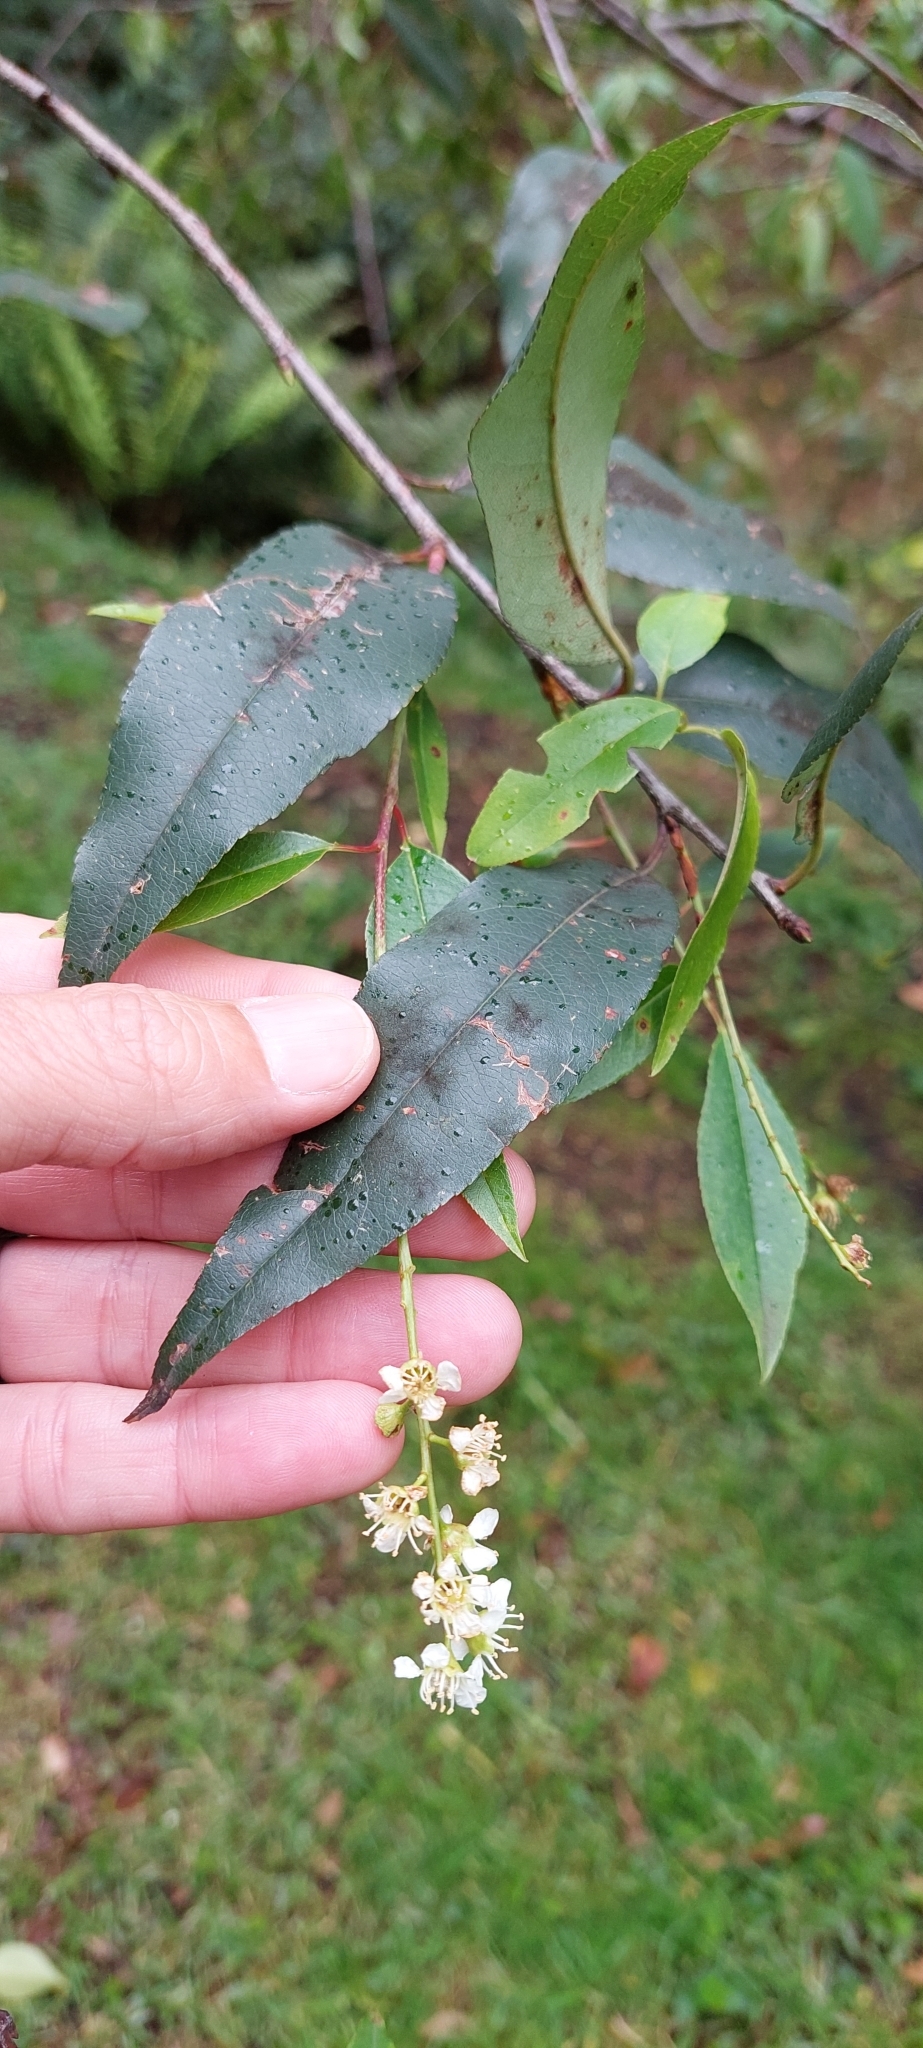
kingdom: Plantae
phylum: Tracheophyta
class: Magnoliopsida
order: Rosales
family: Rosaceae
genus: Prunus
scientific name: Prunus serotina
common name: Black cherry
